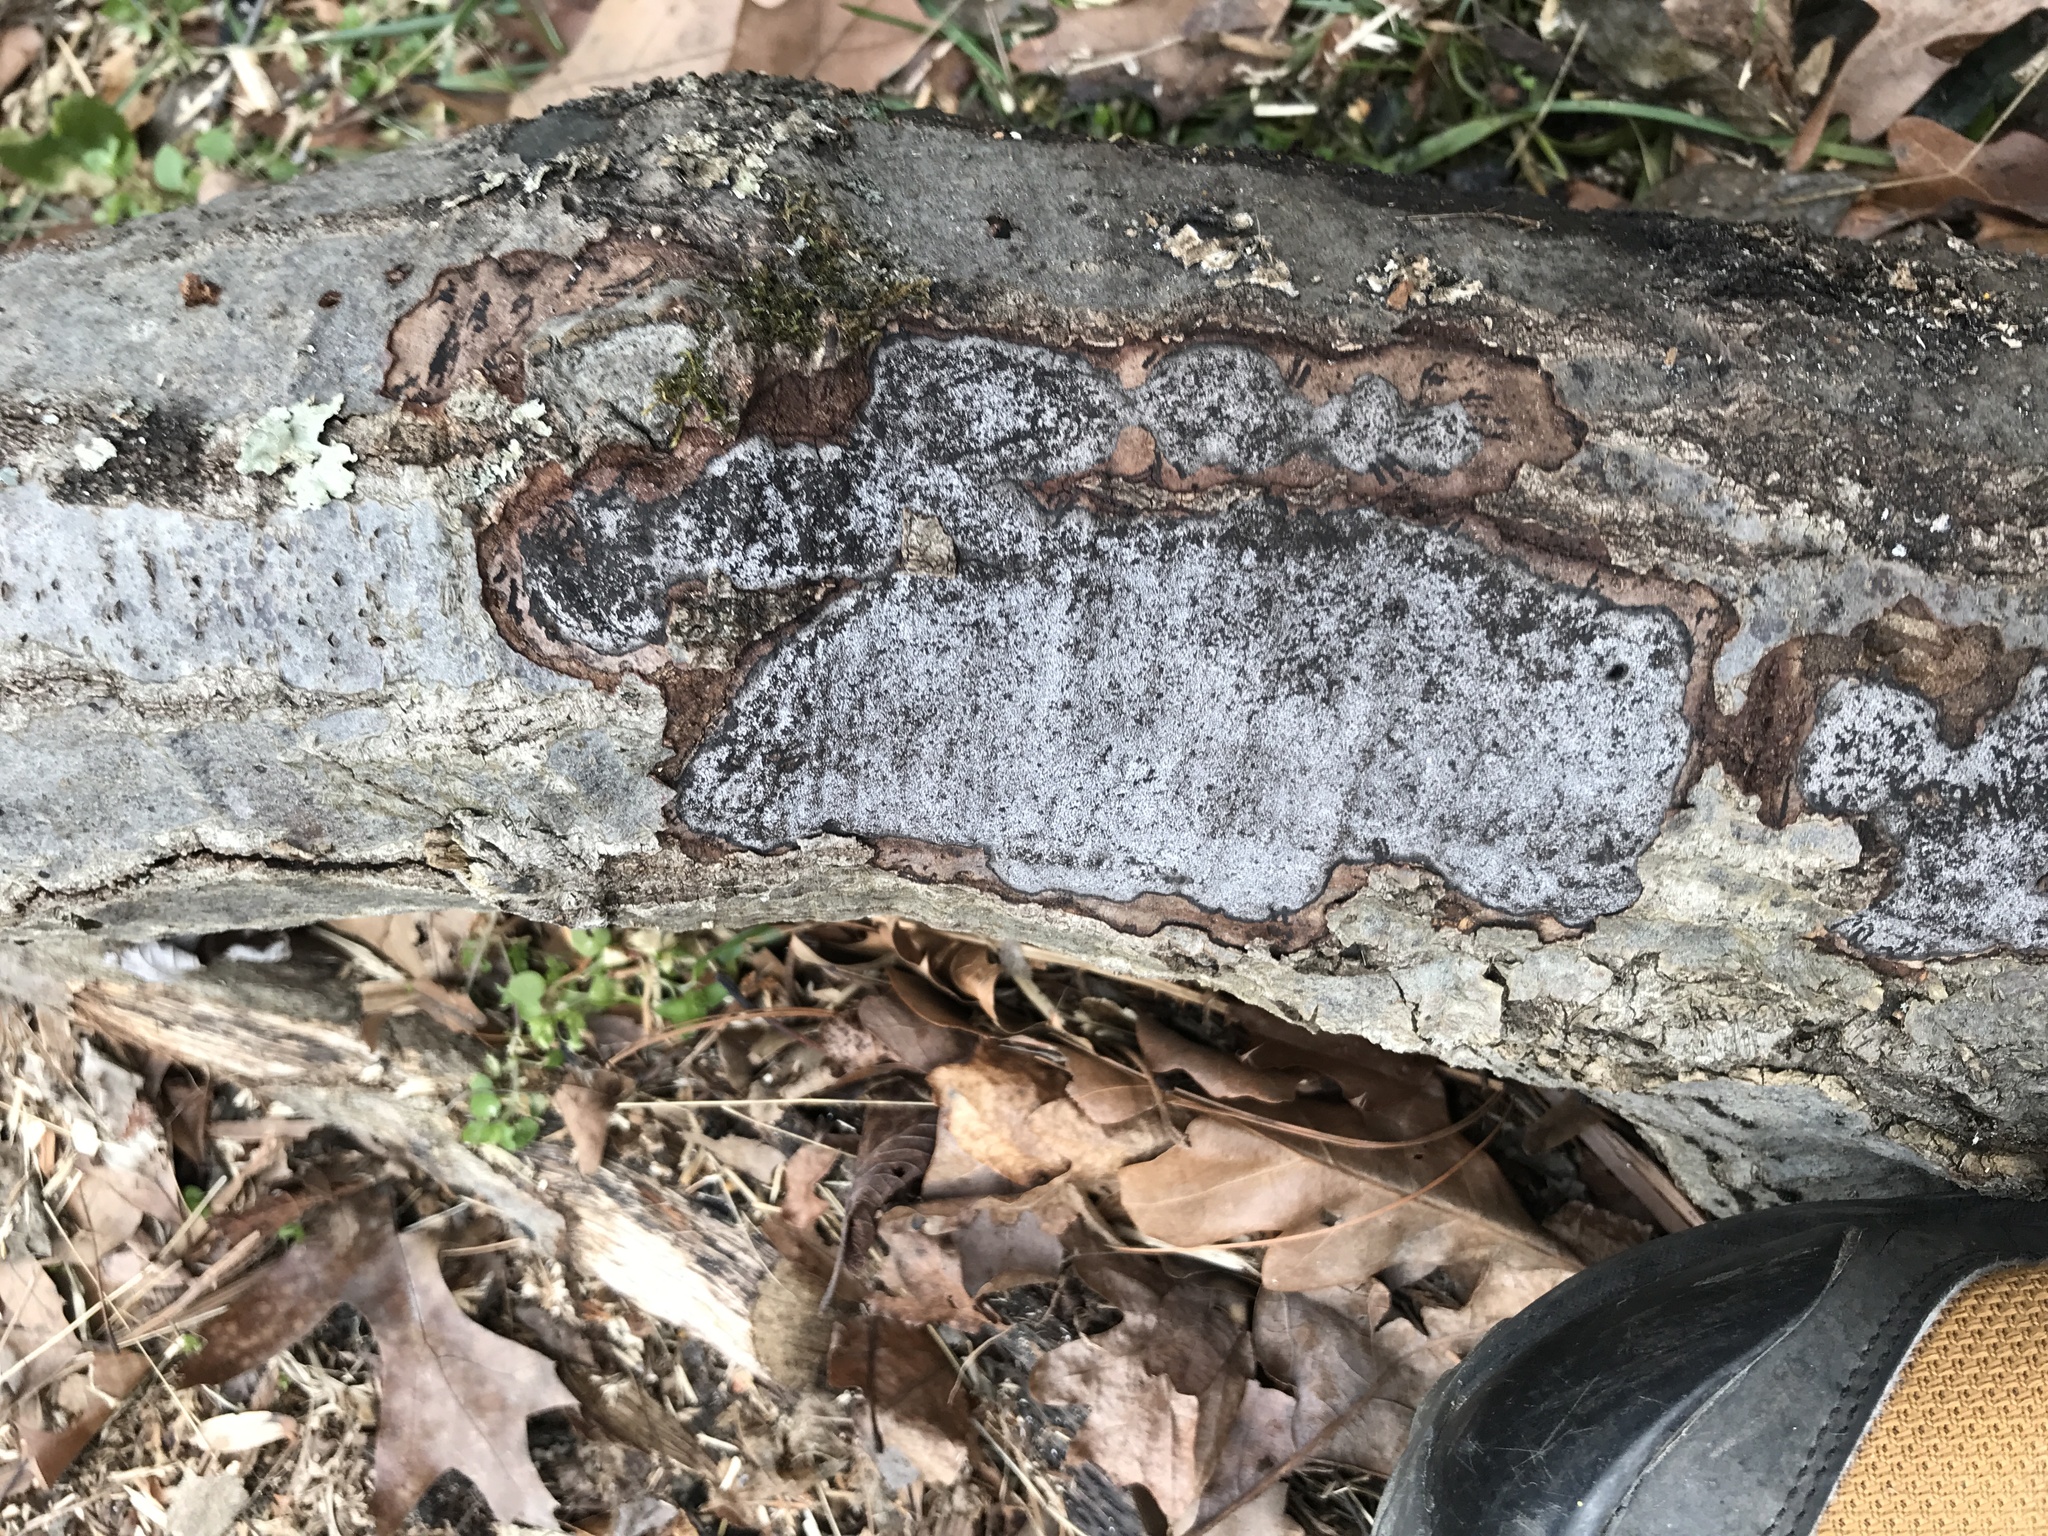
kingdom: Fungi
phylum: Ascomycota
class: Sordariomycetes
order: Xylariales
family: Graphostromataceae
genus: Biscogniauxia
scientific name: Biscogniauxia atropunctata
